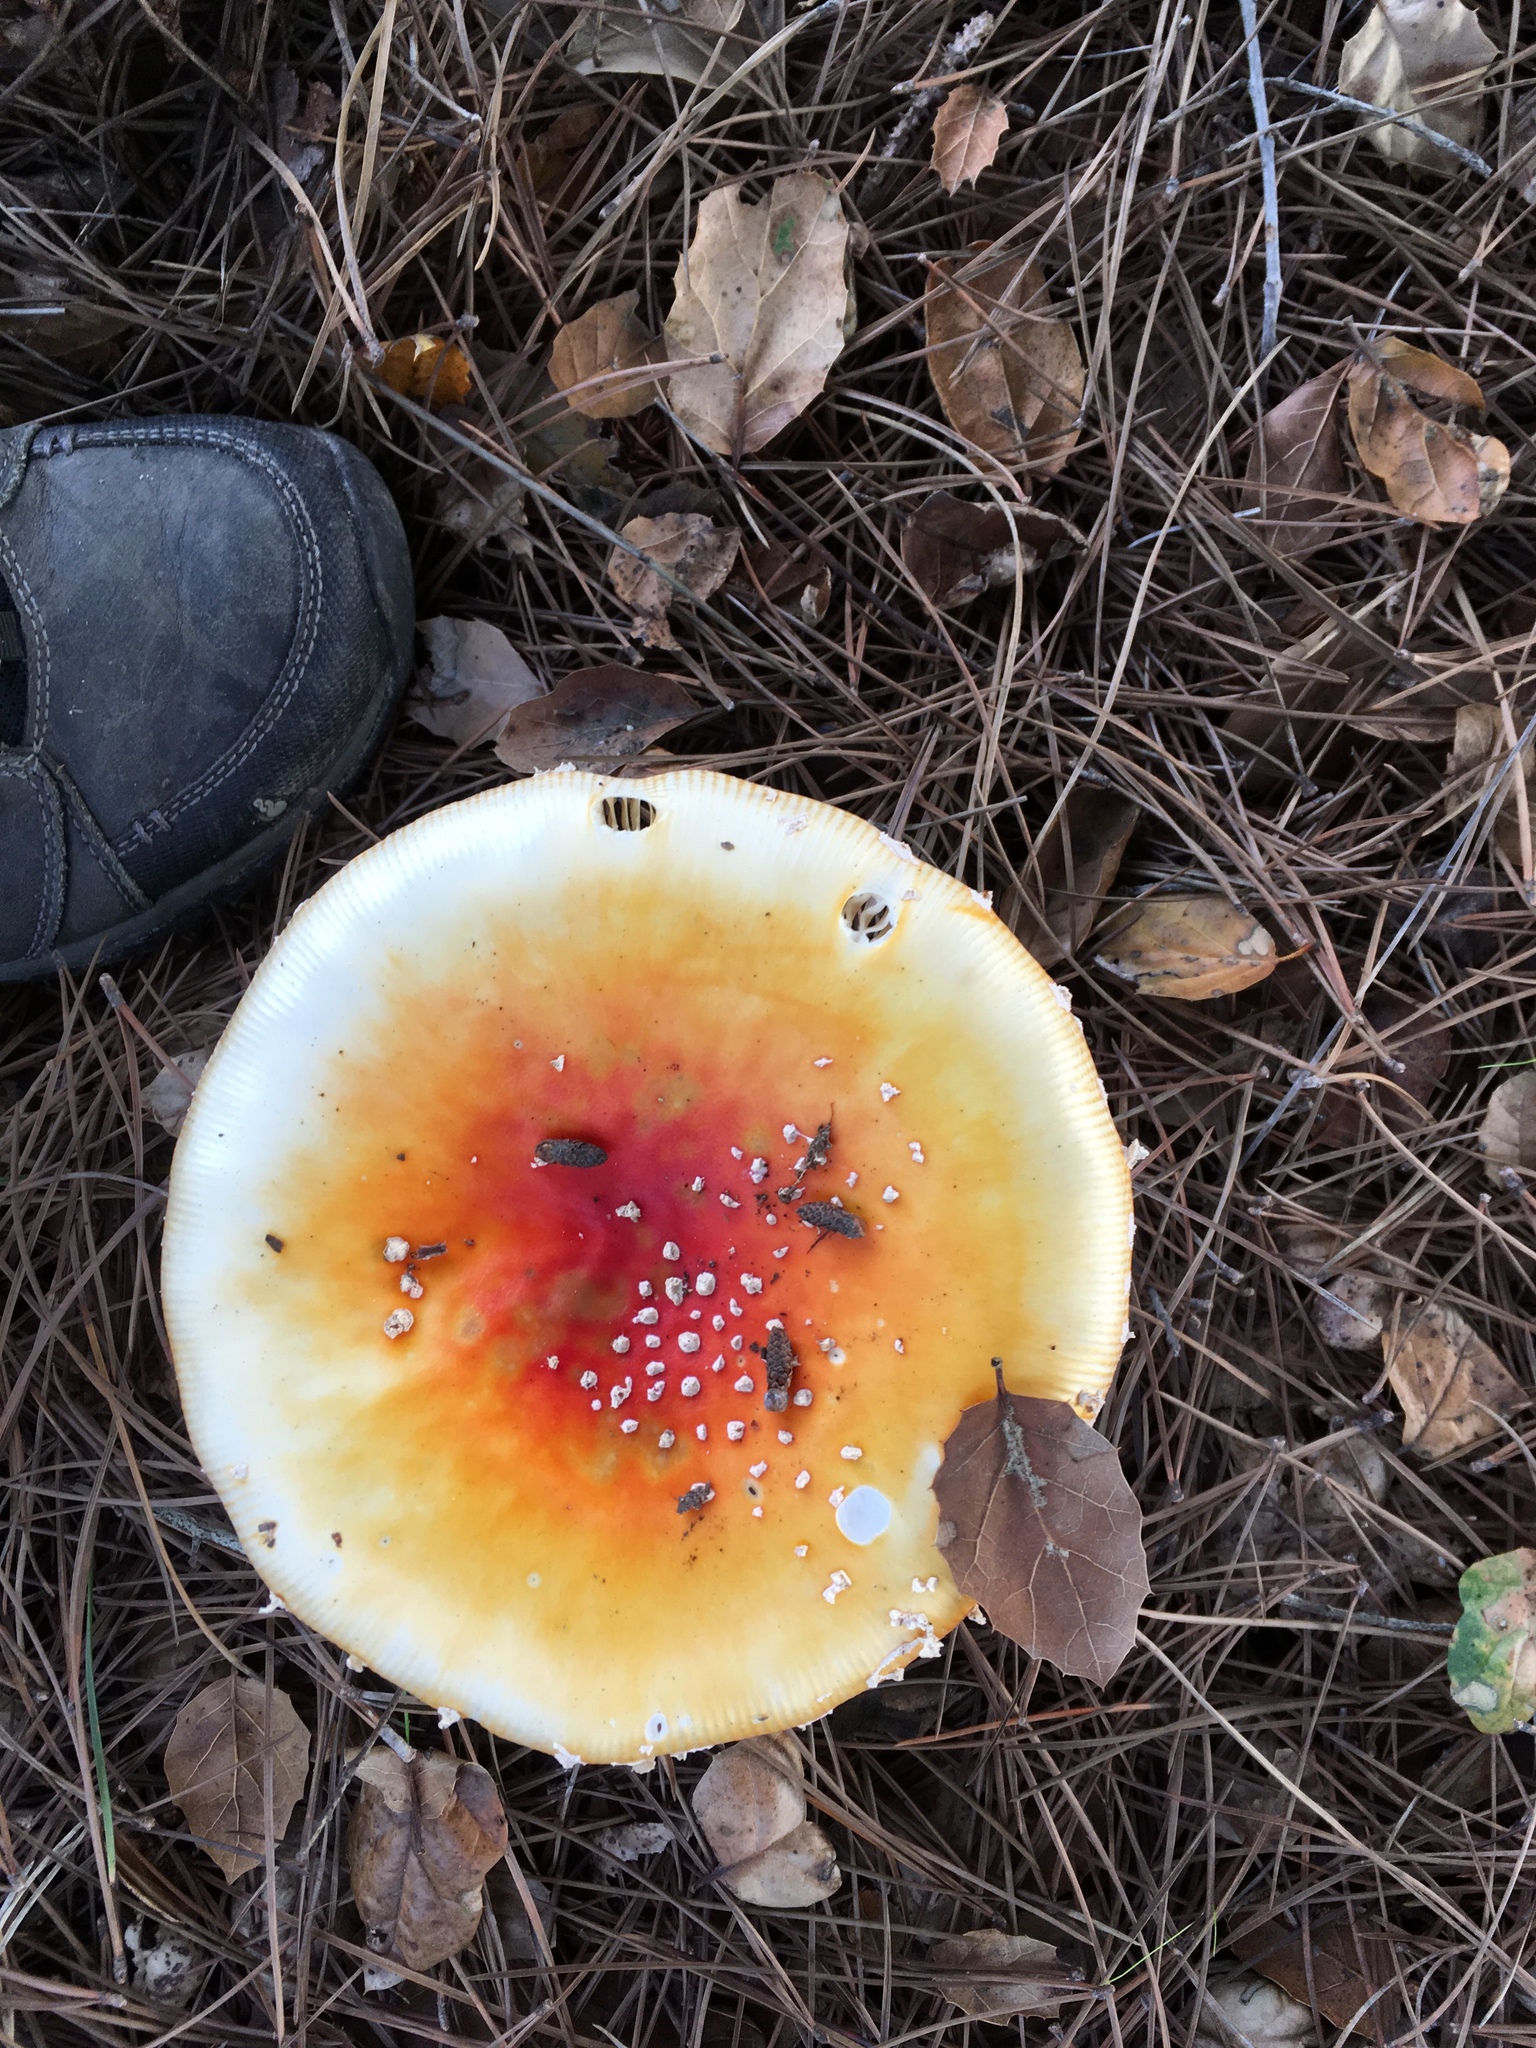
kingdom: Fungi
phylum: Basidiomycota
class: Agaricomycetes
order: Agaricales
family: Amanitaceae
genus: Amanita
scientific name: Amanita muscaria
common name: Fly agaric
